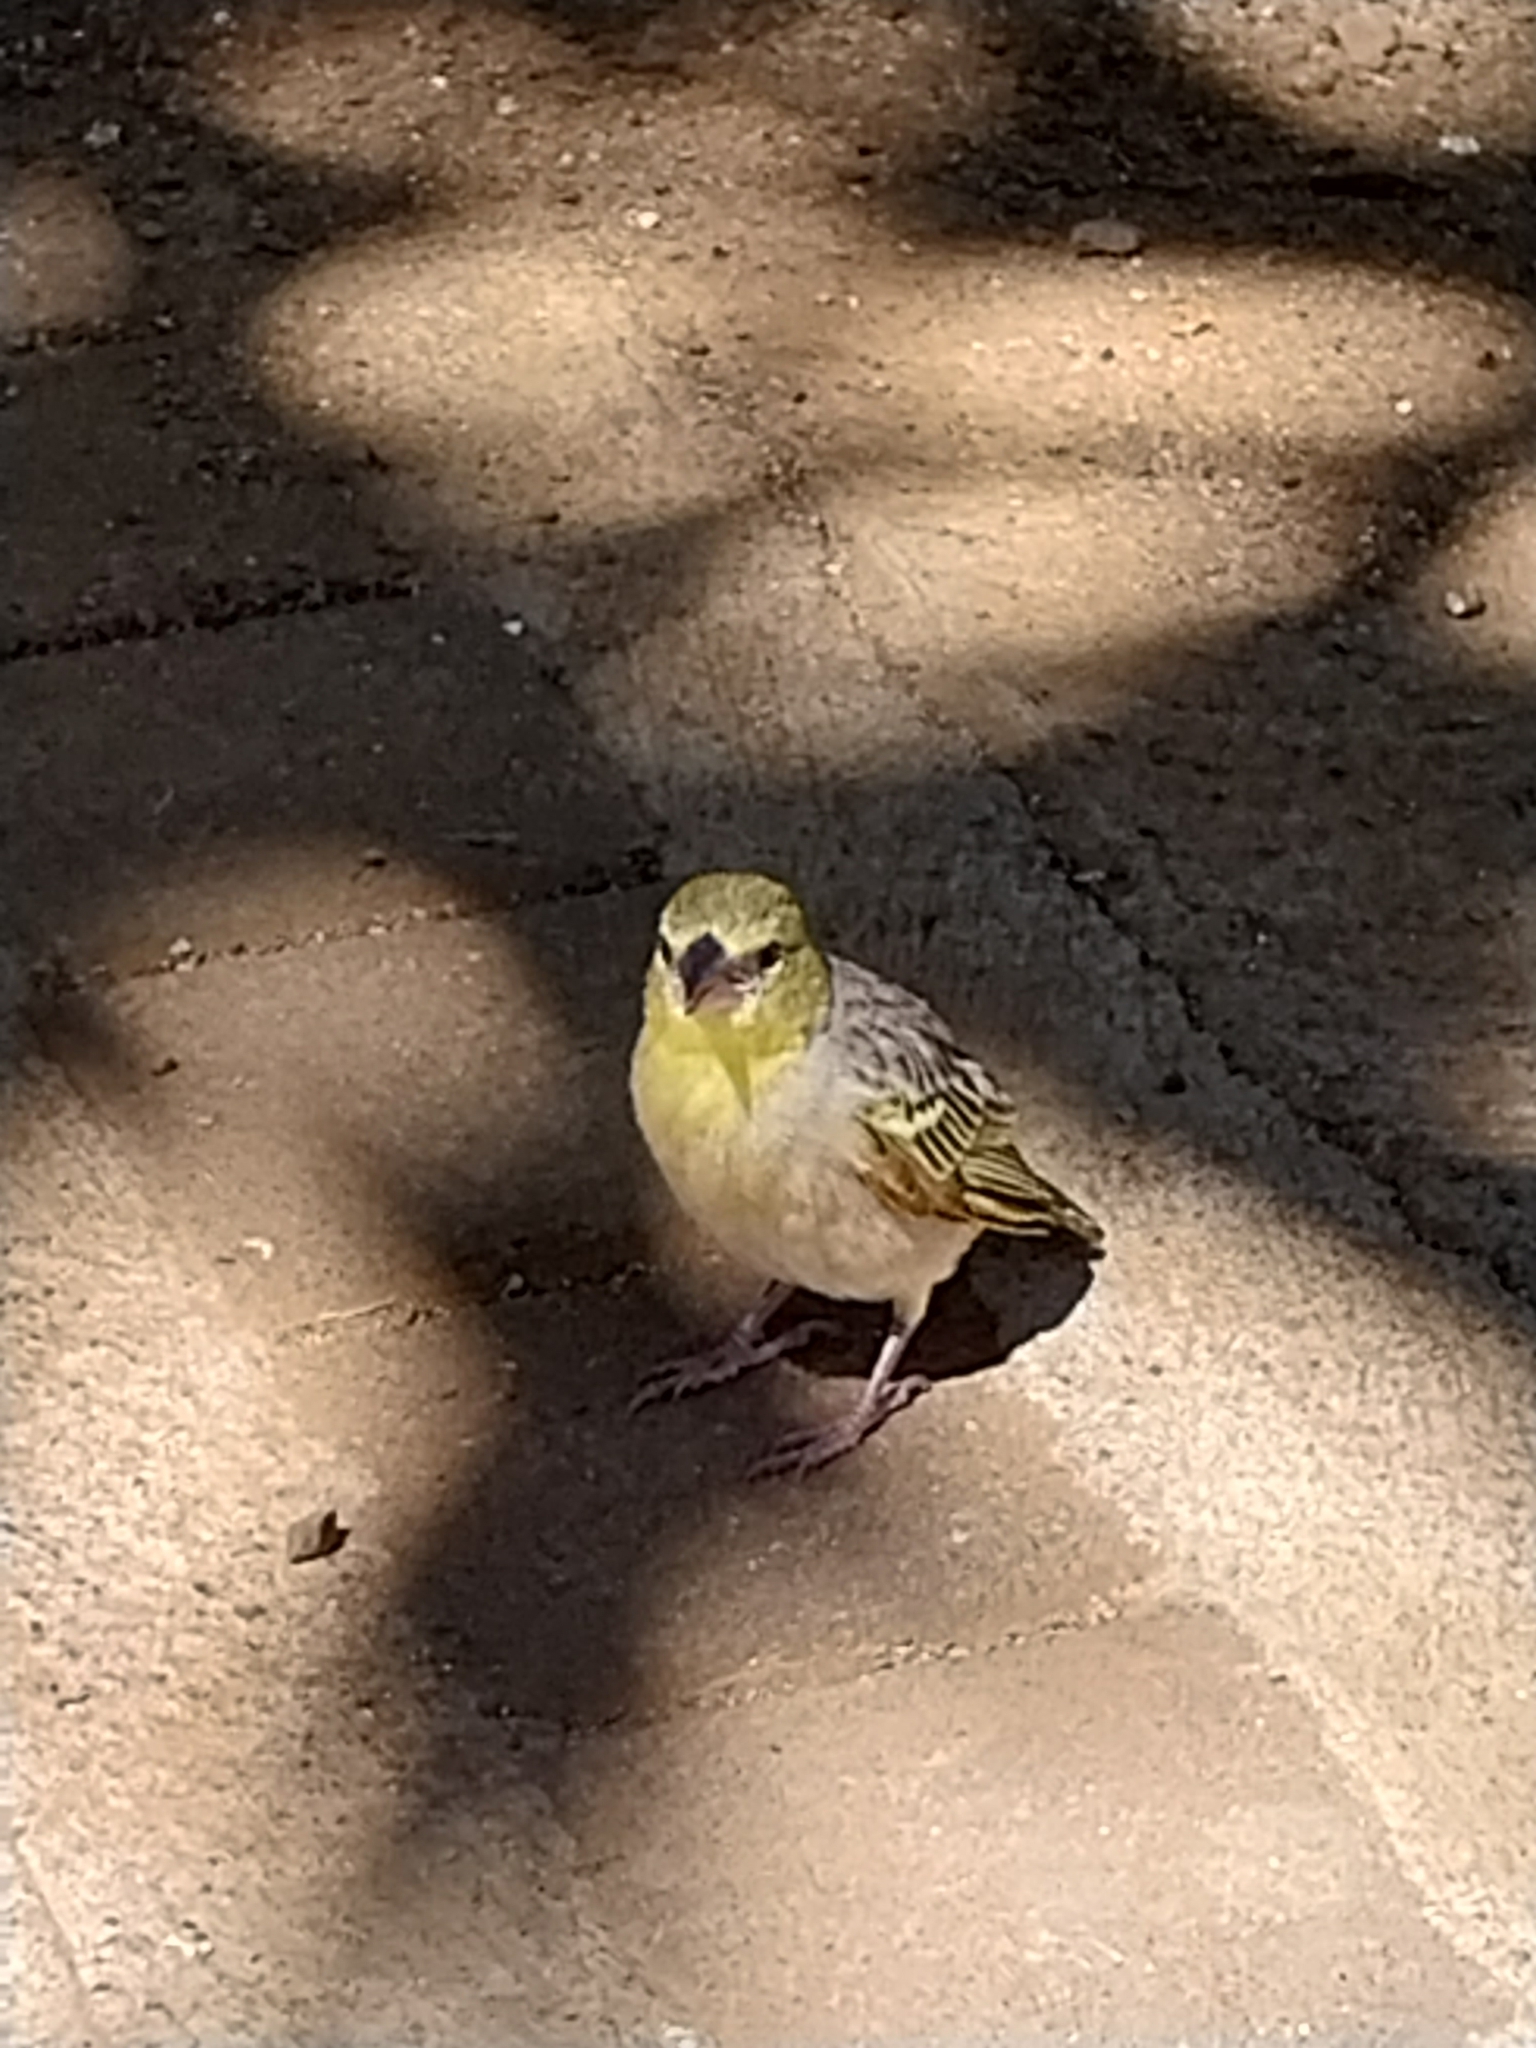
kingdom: Animalia
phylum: Chordata
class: Aves
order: Passeriformes
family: Ploceidae
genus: Ploceus
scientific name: Ploceus cucullatus
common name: Village weaver
